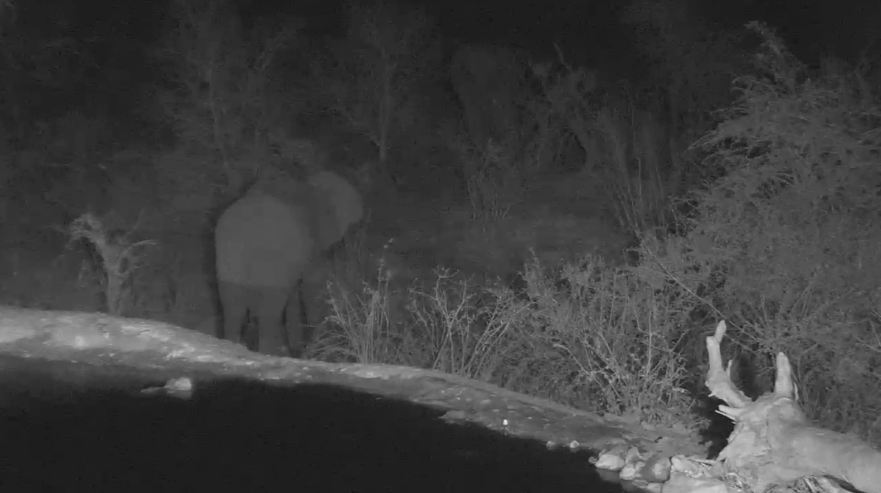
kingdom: Animalia
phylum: Chordata
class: Mammalia
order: Proboscidea
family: Elephantidae
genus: Loxodonta
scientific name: Loxodonta africana
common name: African elephant
